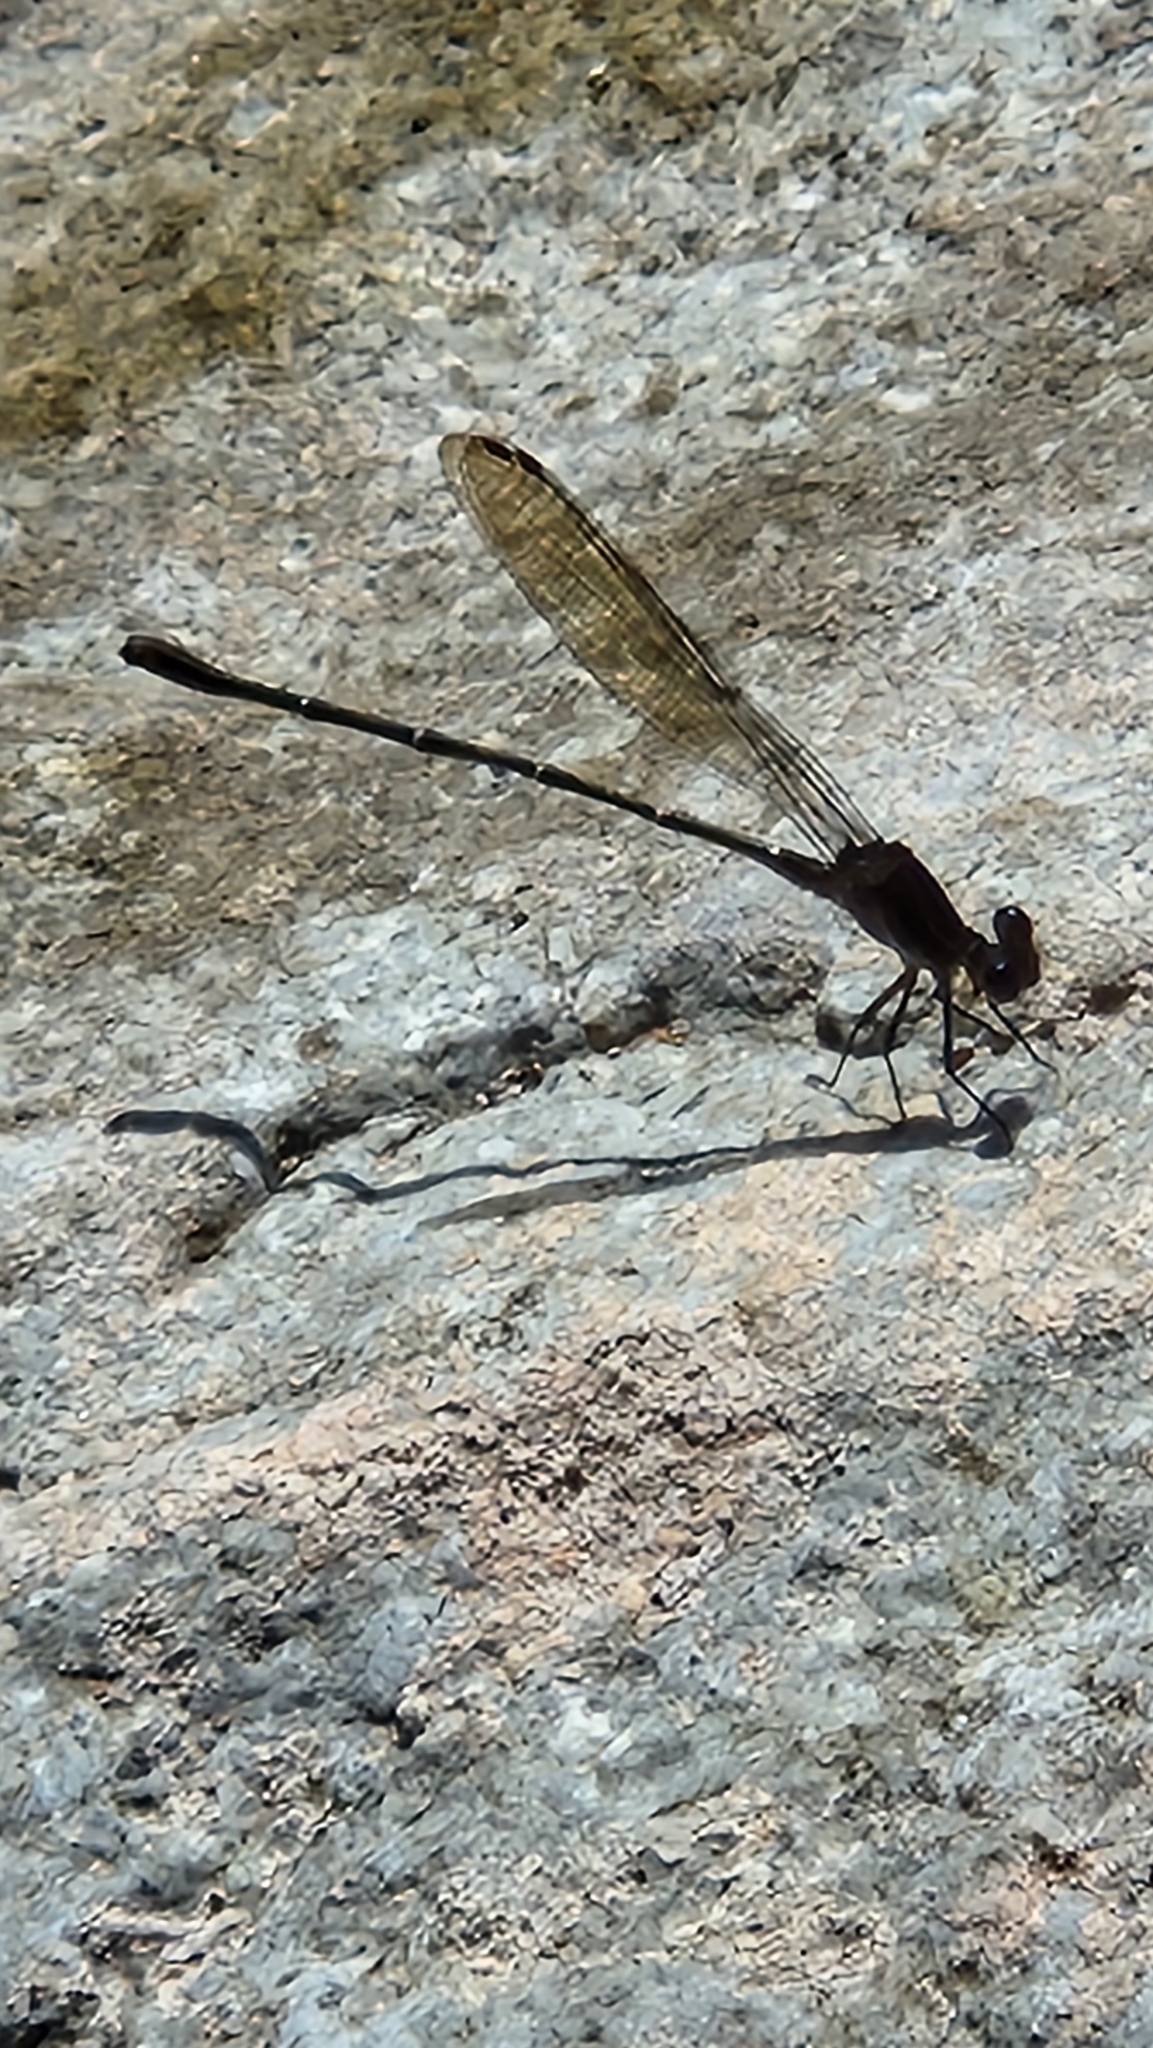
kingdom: Animalia
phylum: Arthropoda
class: Insecta
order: Odonata
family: Coenagrionidae
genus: Argia
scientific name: Argia tezpi
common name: Tezpi dancer
